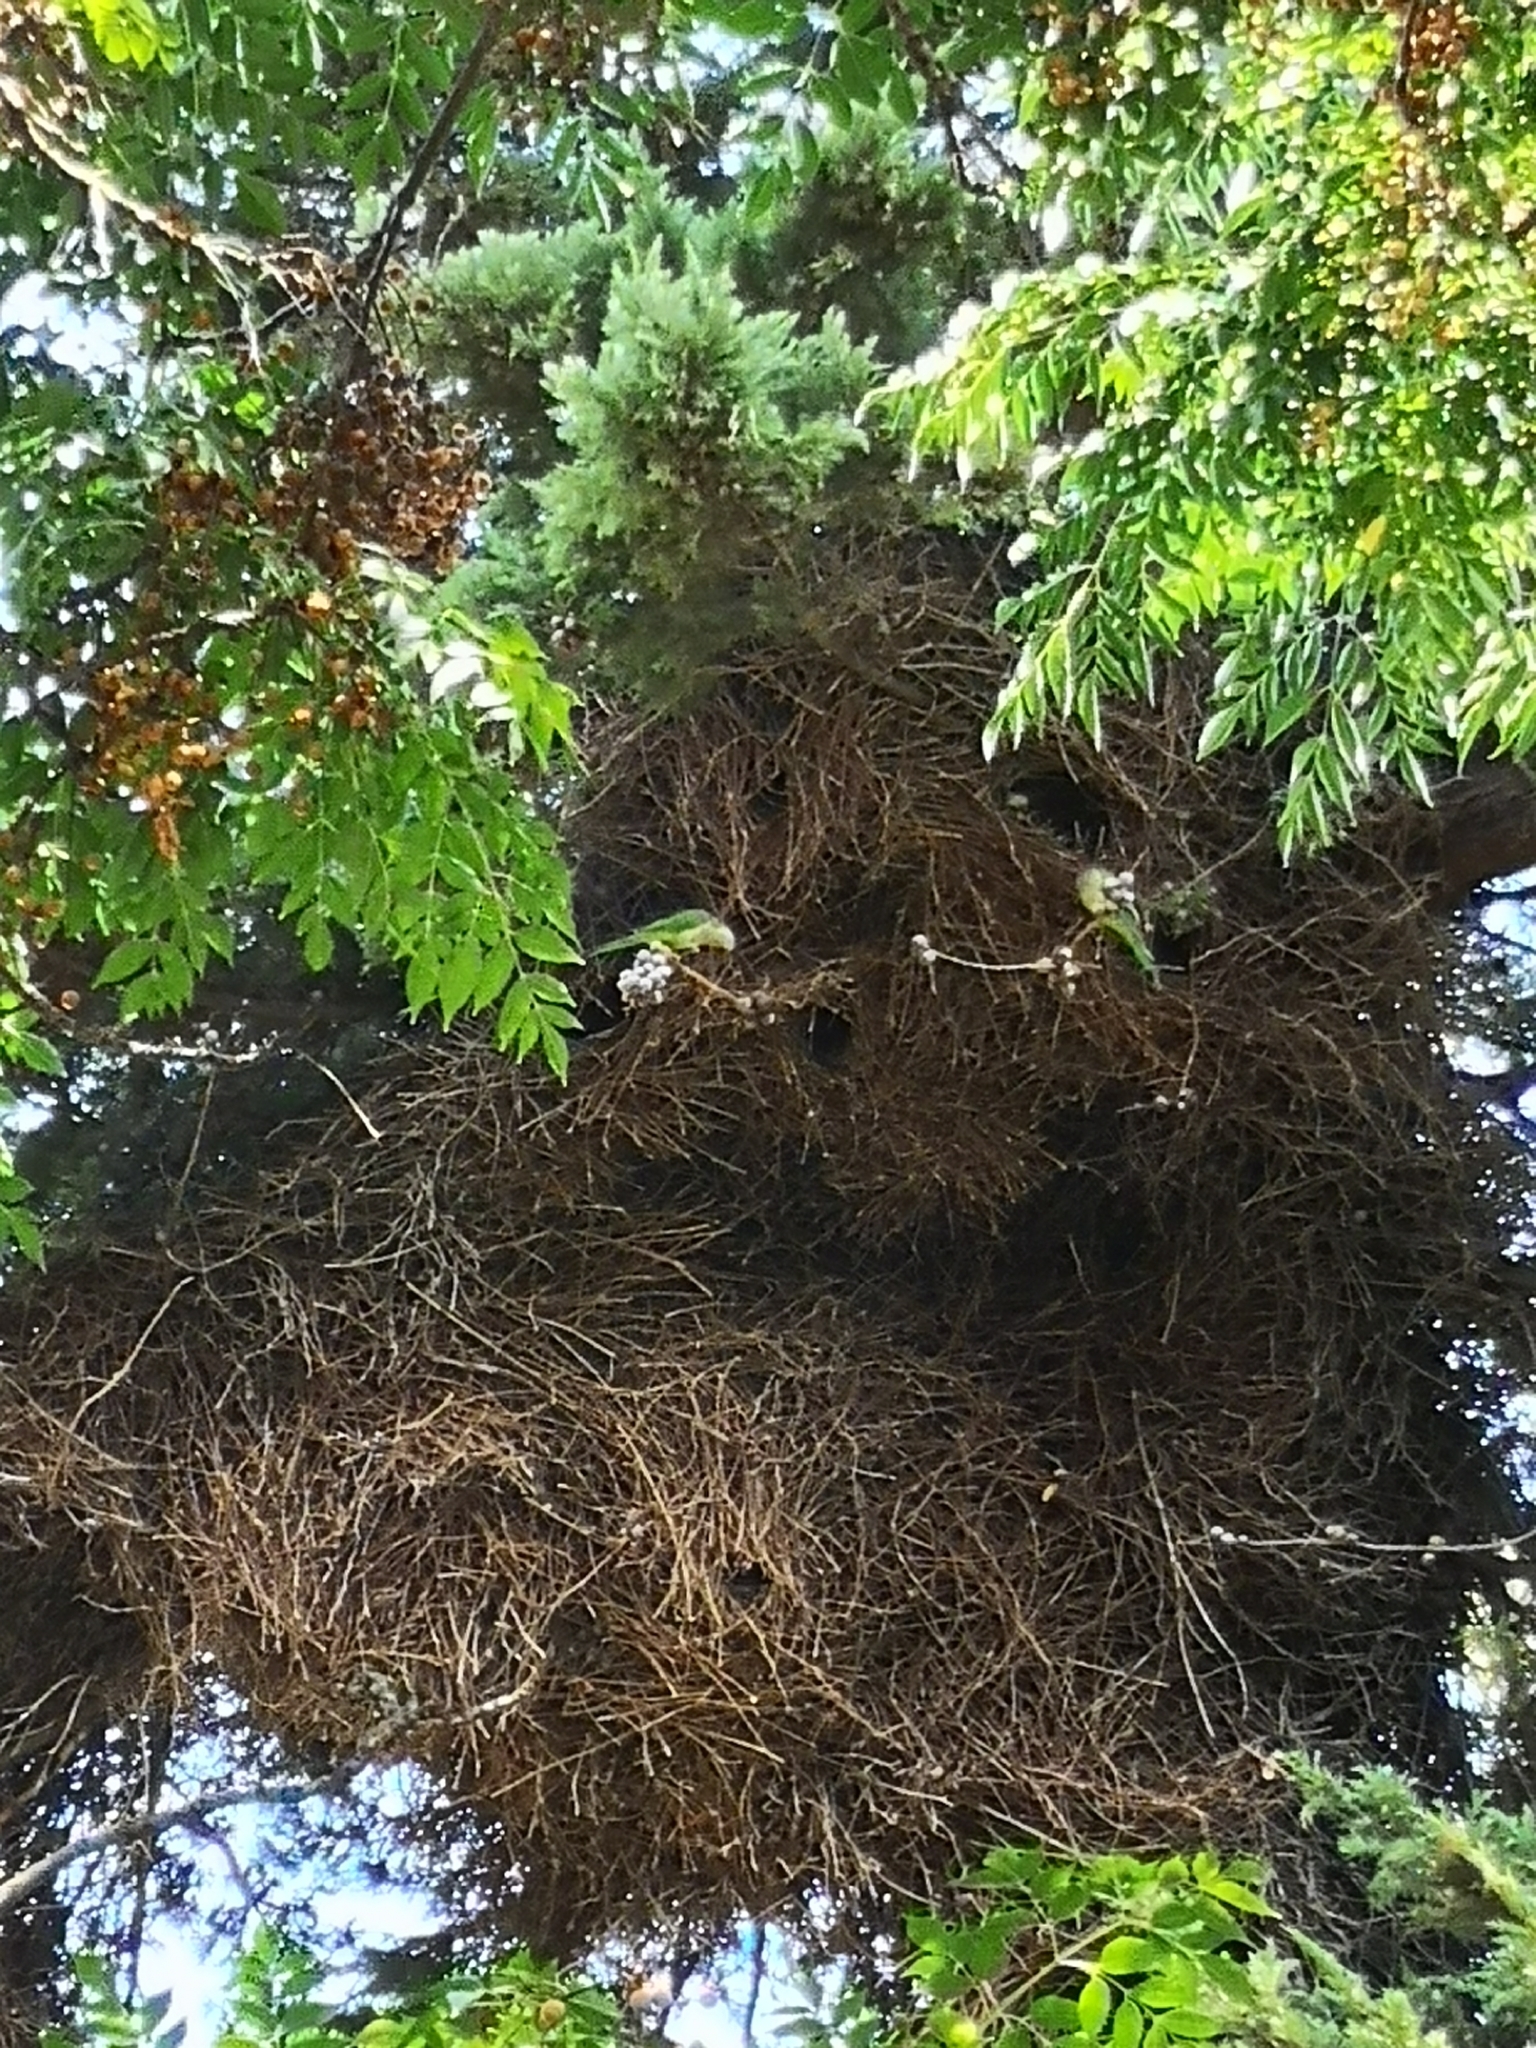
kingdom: Animalia
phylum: Chordata
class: Aves
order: Psittaciformes
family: Psittacidae
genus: Myiopsitta
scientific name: Myiopsitta monachus
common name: Monk parakeet
